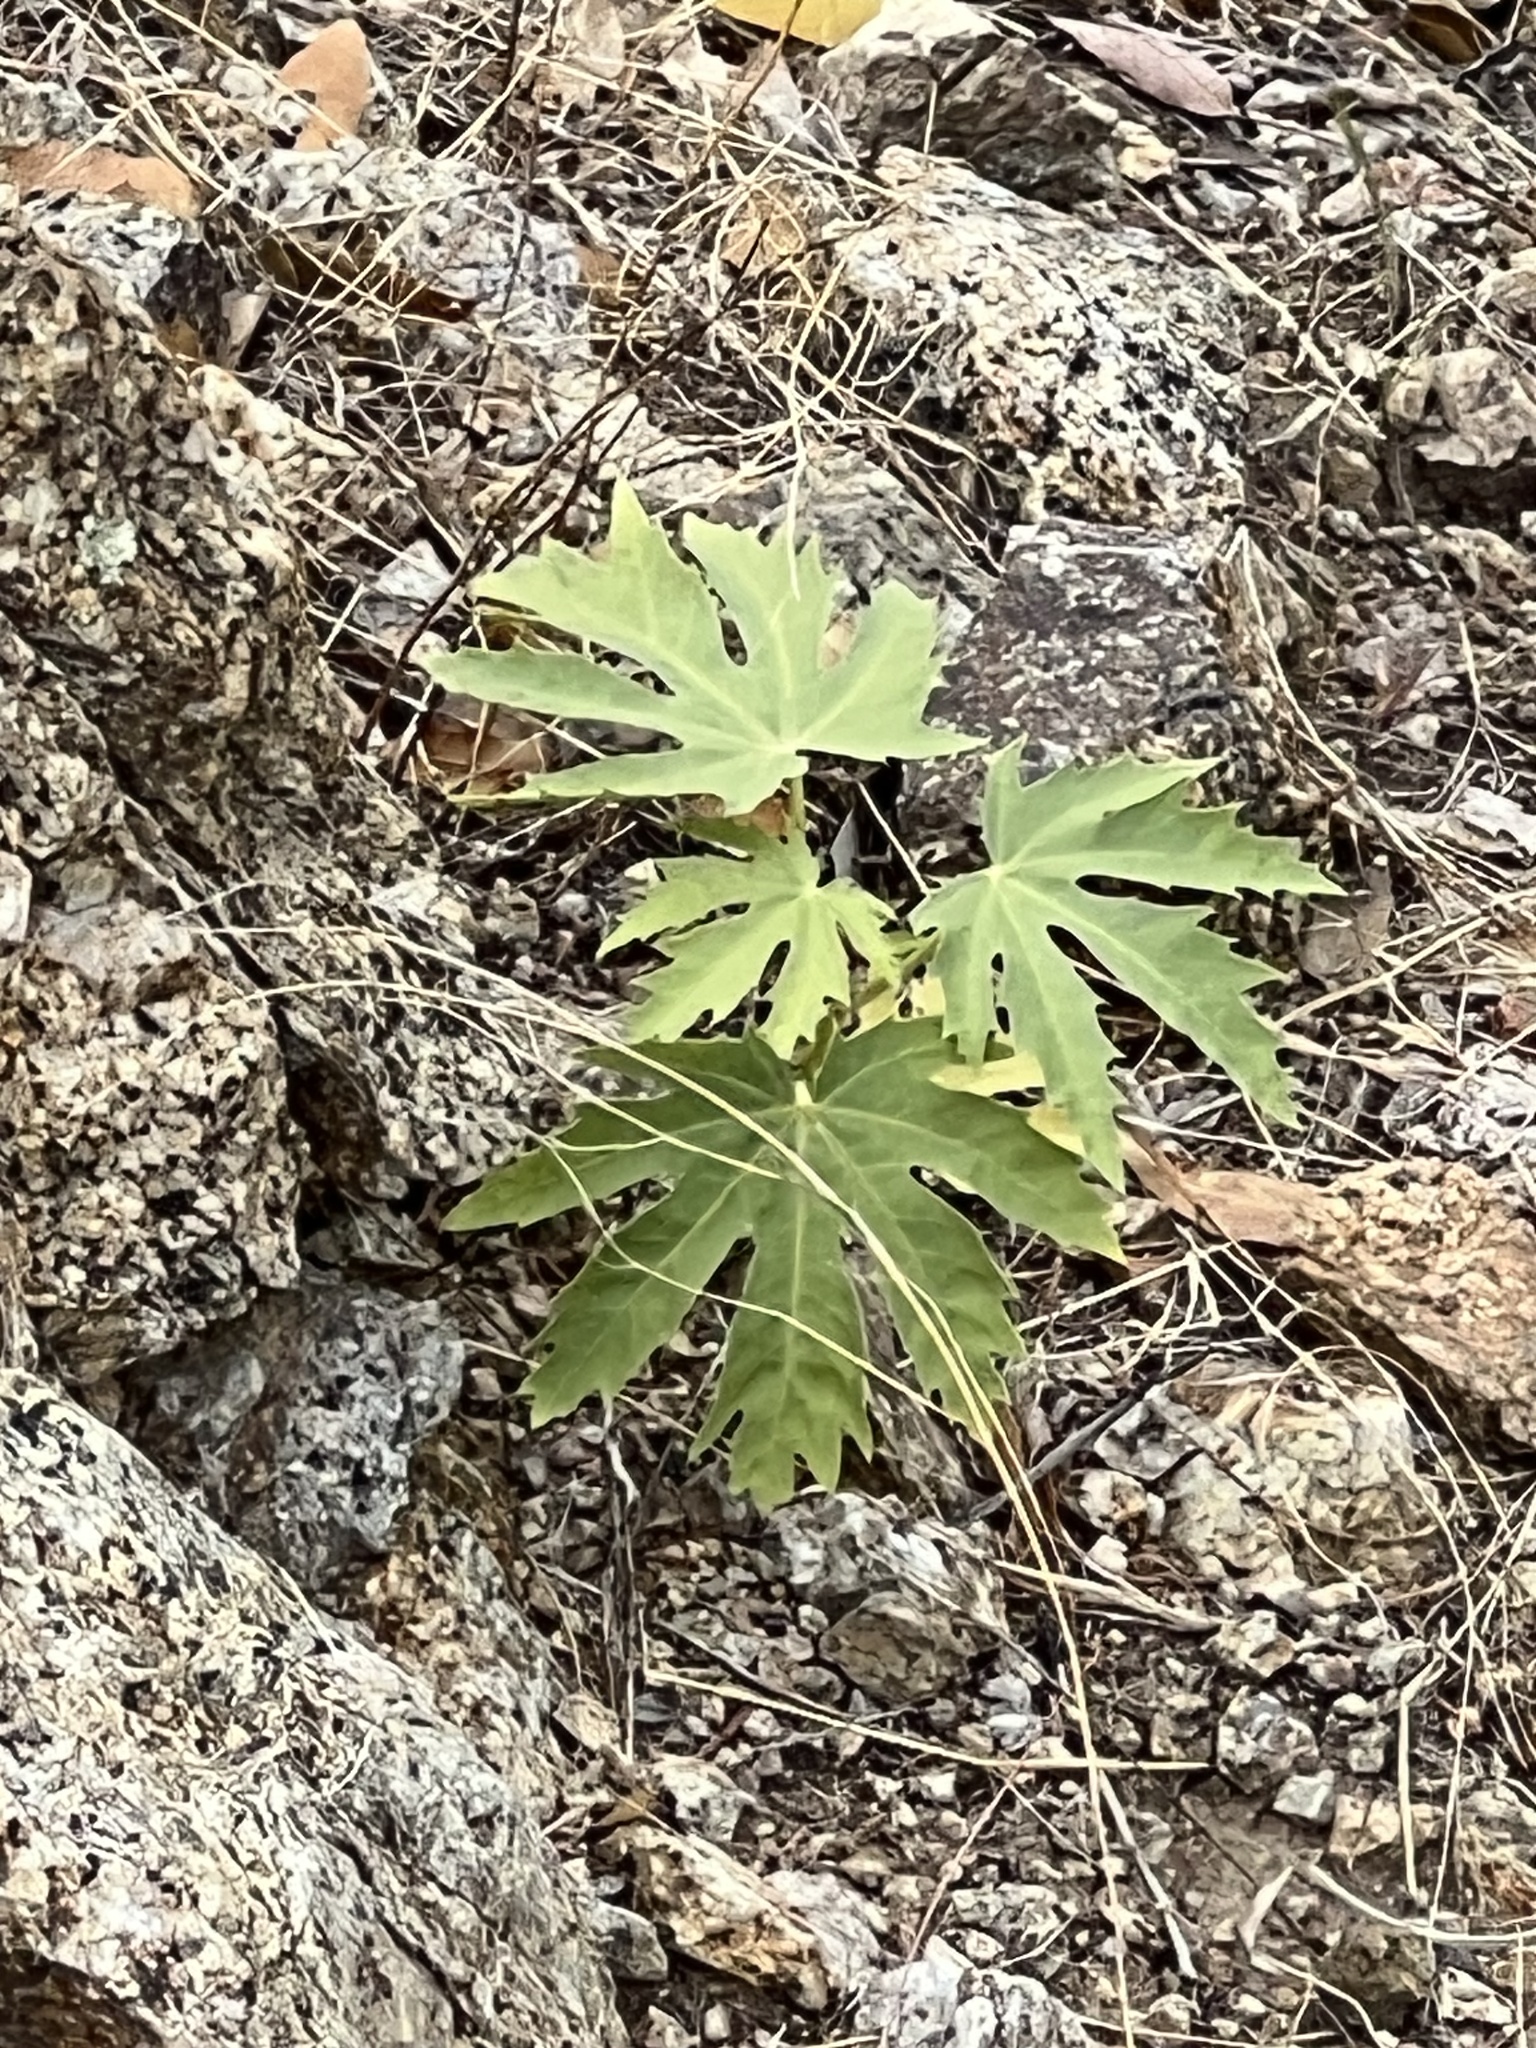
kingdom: Plantae
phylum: Tracheophyta
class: Magnoliopsida
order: Malpighiales
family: Euphorbiaceae
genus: Jatropha
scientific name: Jatropha macrorhiza
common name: Ragged nettlespurge
